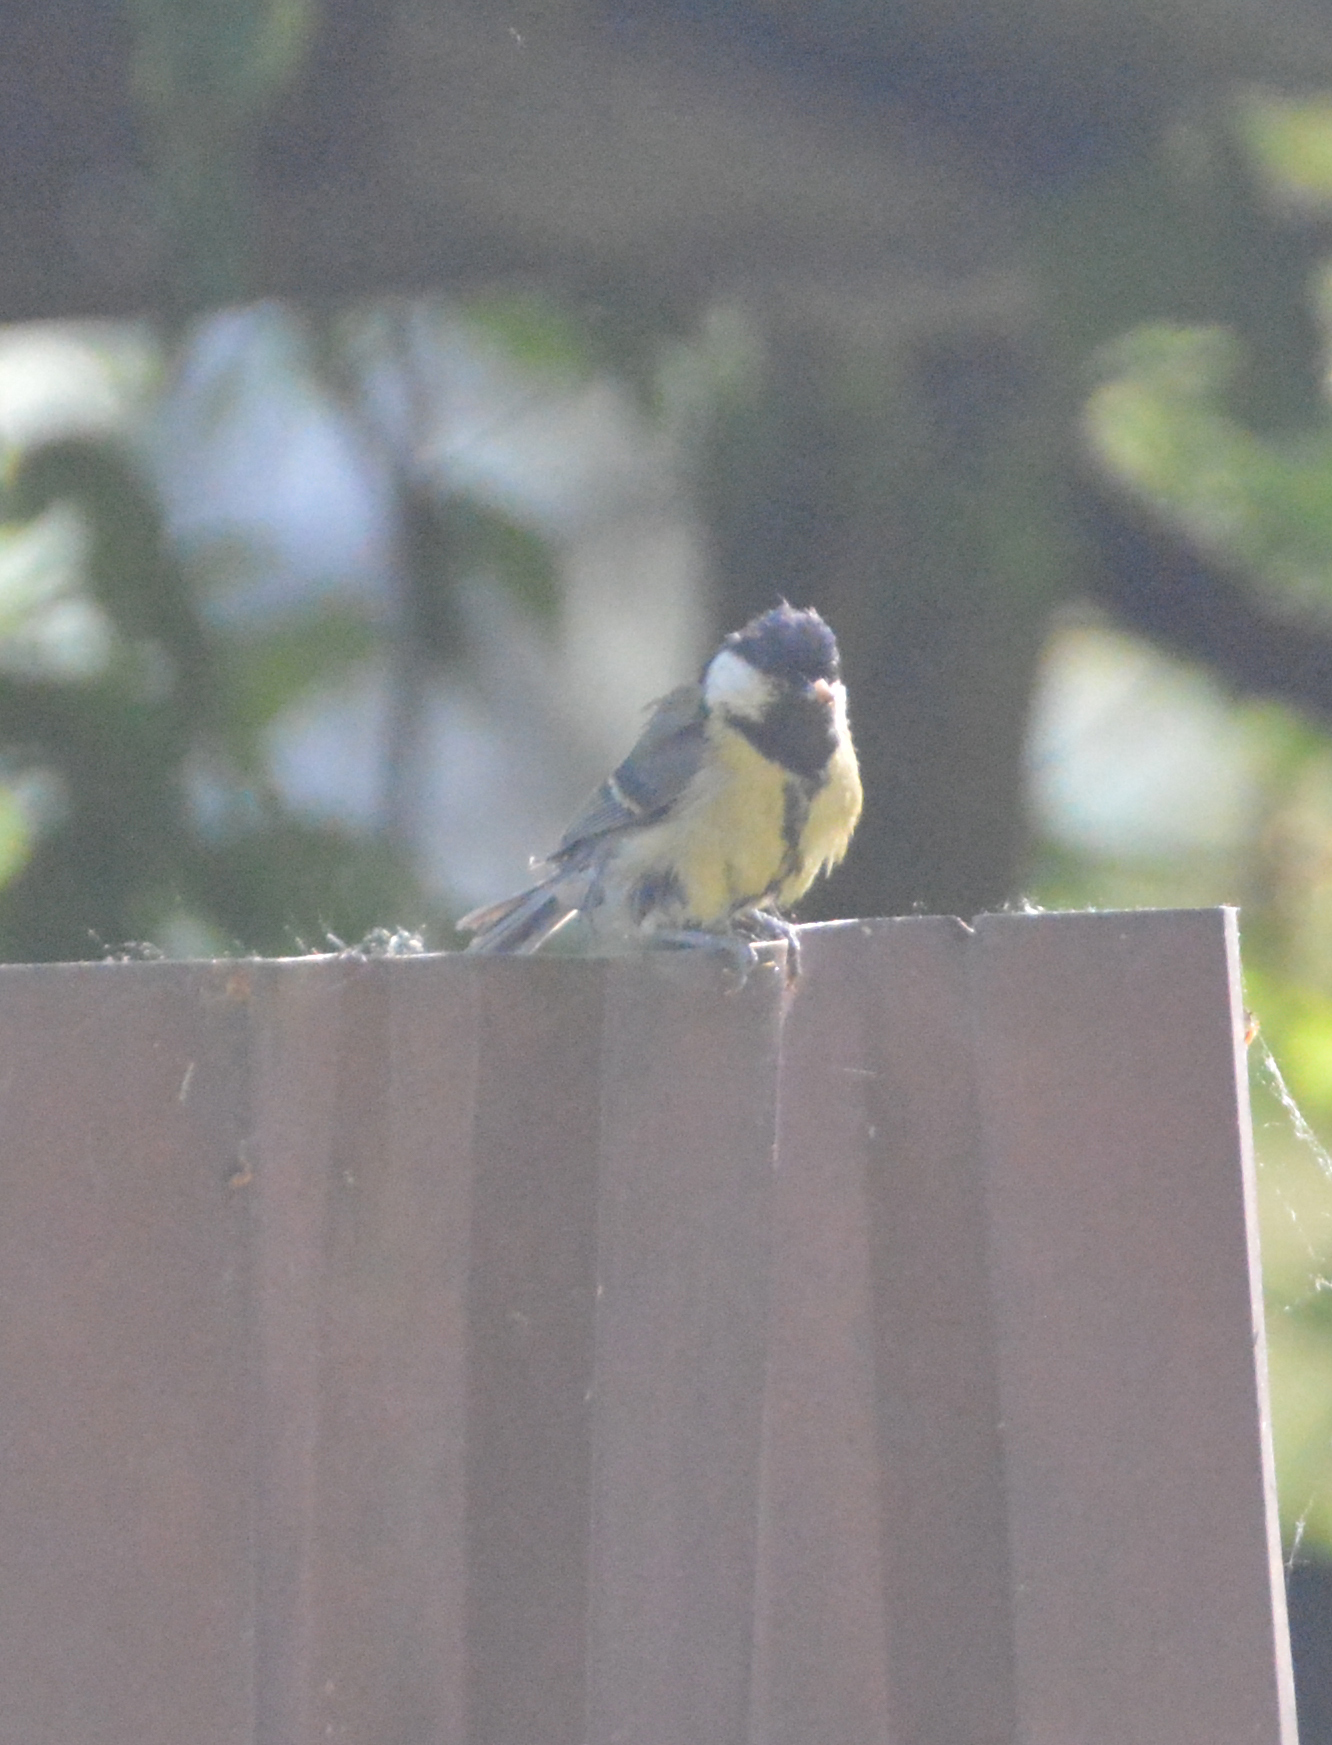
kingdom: Animalia
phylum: Chordata
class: Aves
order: Passeriformes
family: Paridae
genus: Parus
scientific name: Parus major
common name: Great tit
